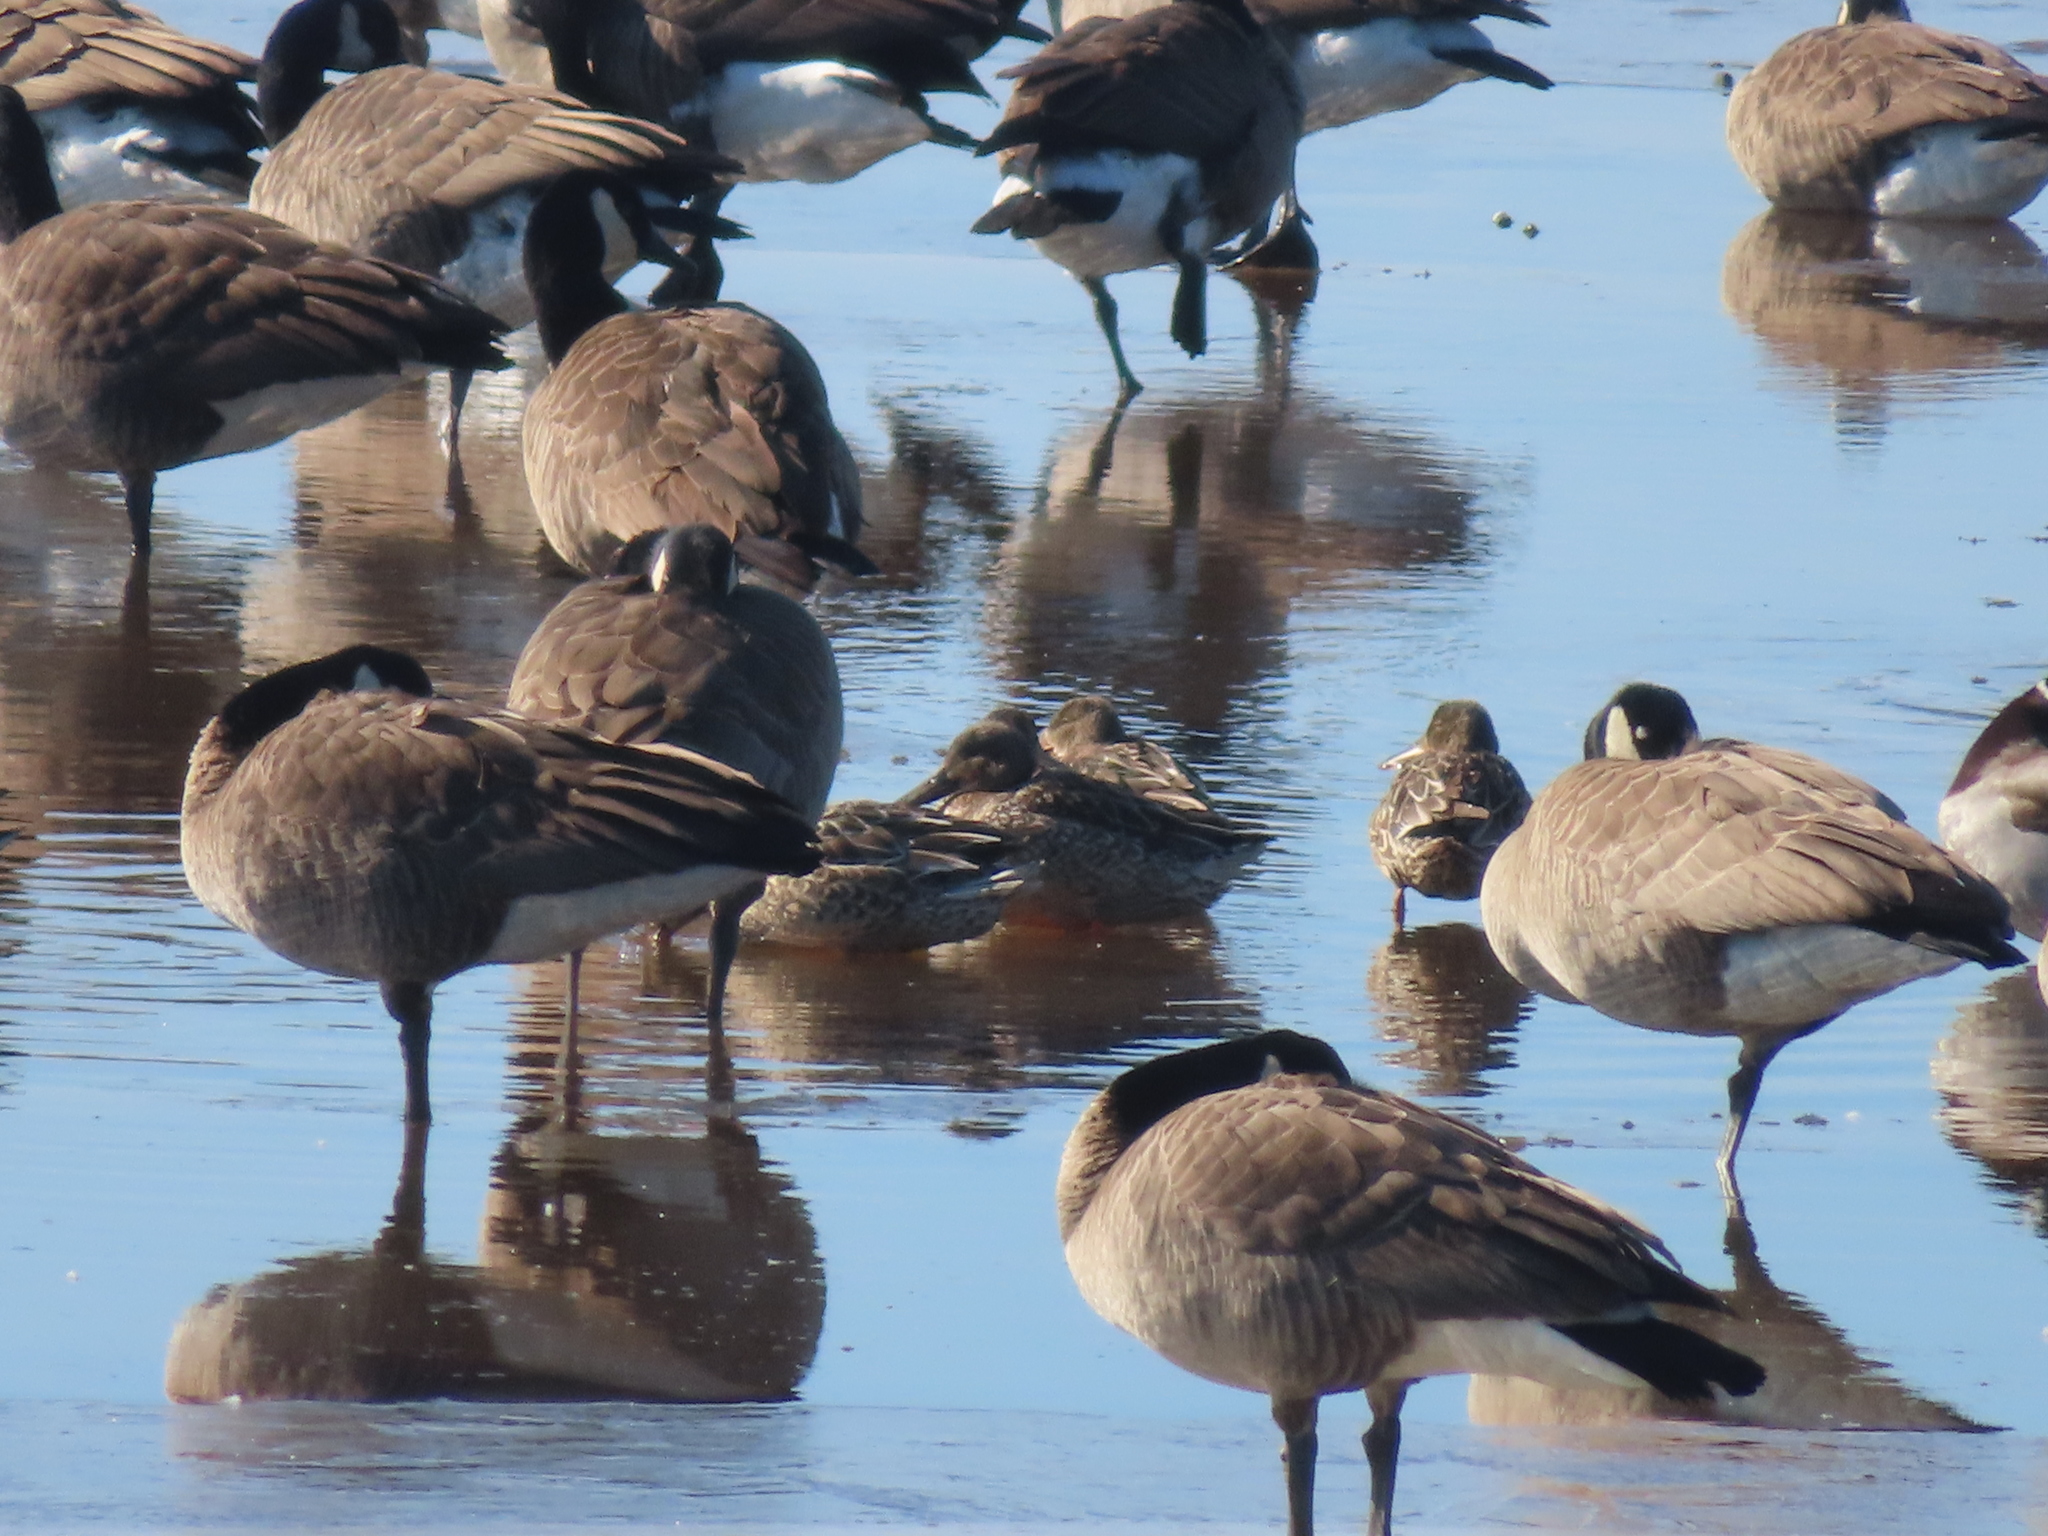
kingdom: Animalia
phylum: Chordata
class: Aves
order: Anseriformes
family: Anatidae
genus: Spatula
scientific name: Spatula clypeata
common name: Northern shoveler
